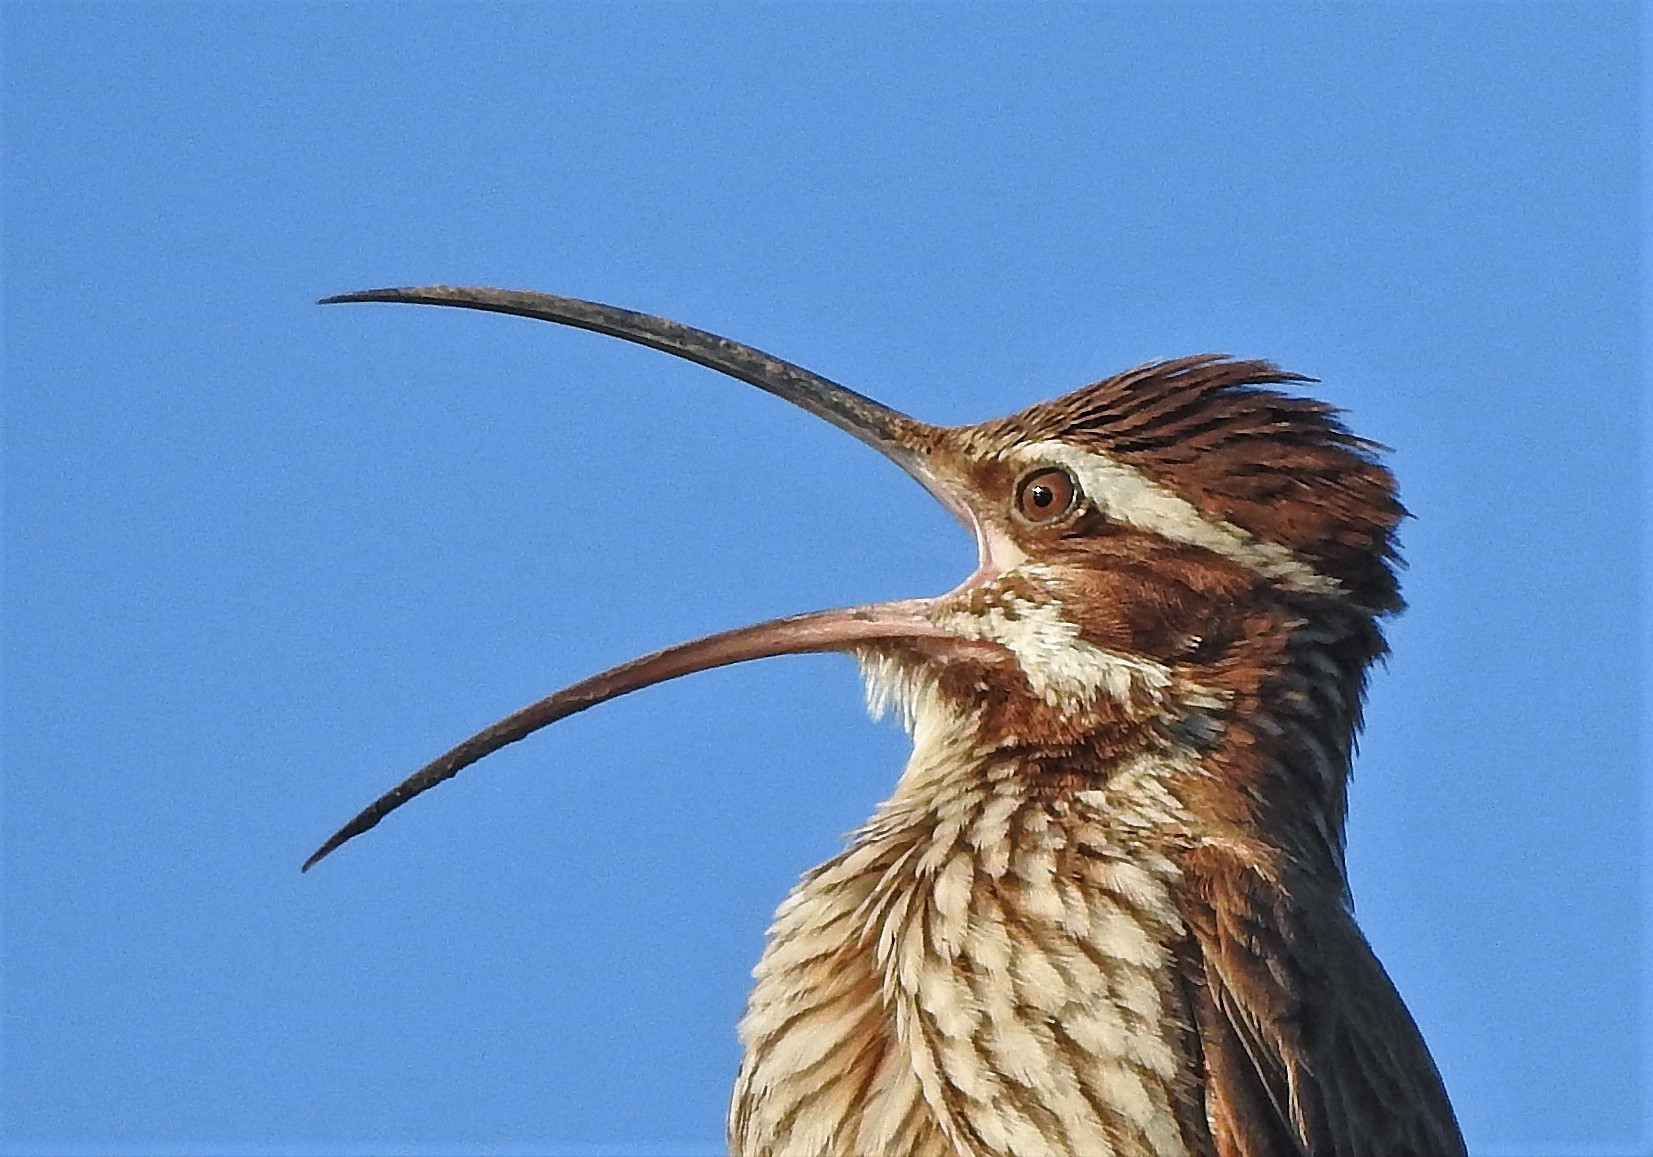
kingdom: Animalia
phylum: Chordata
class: Aves
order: Passeriformes
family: Furnariidae
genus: Drymornis
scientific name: Drymornis bridgesii
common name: Scimitar-billed woodcreeper
